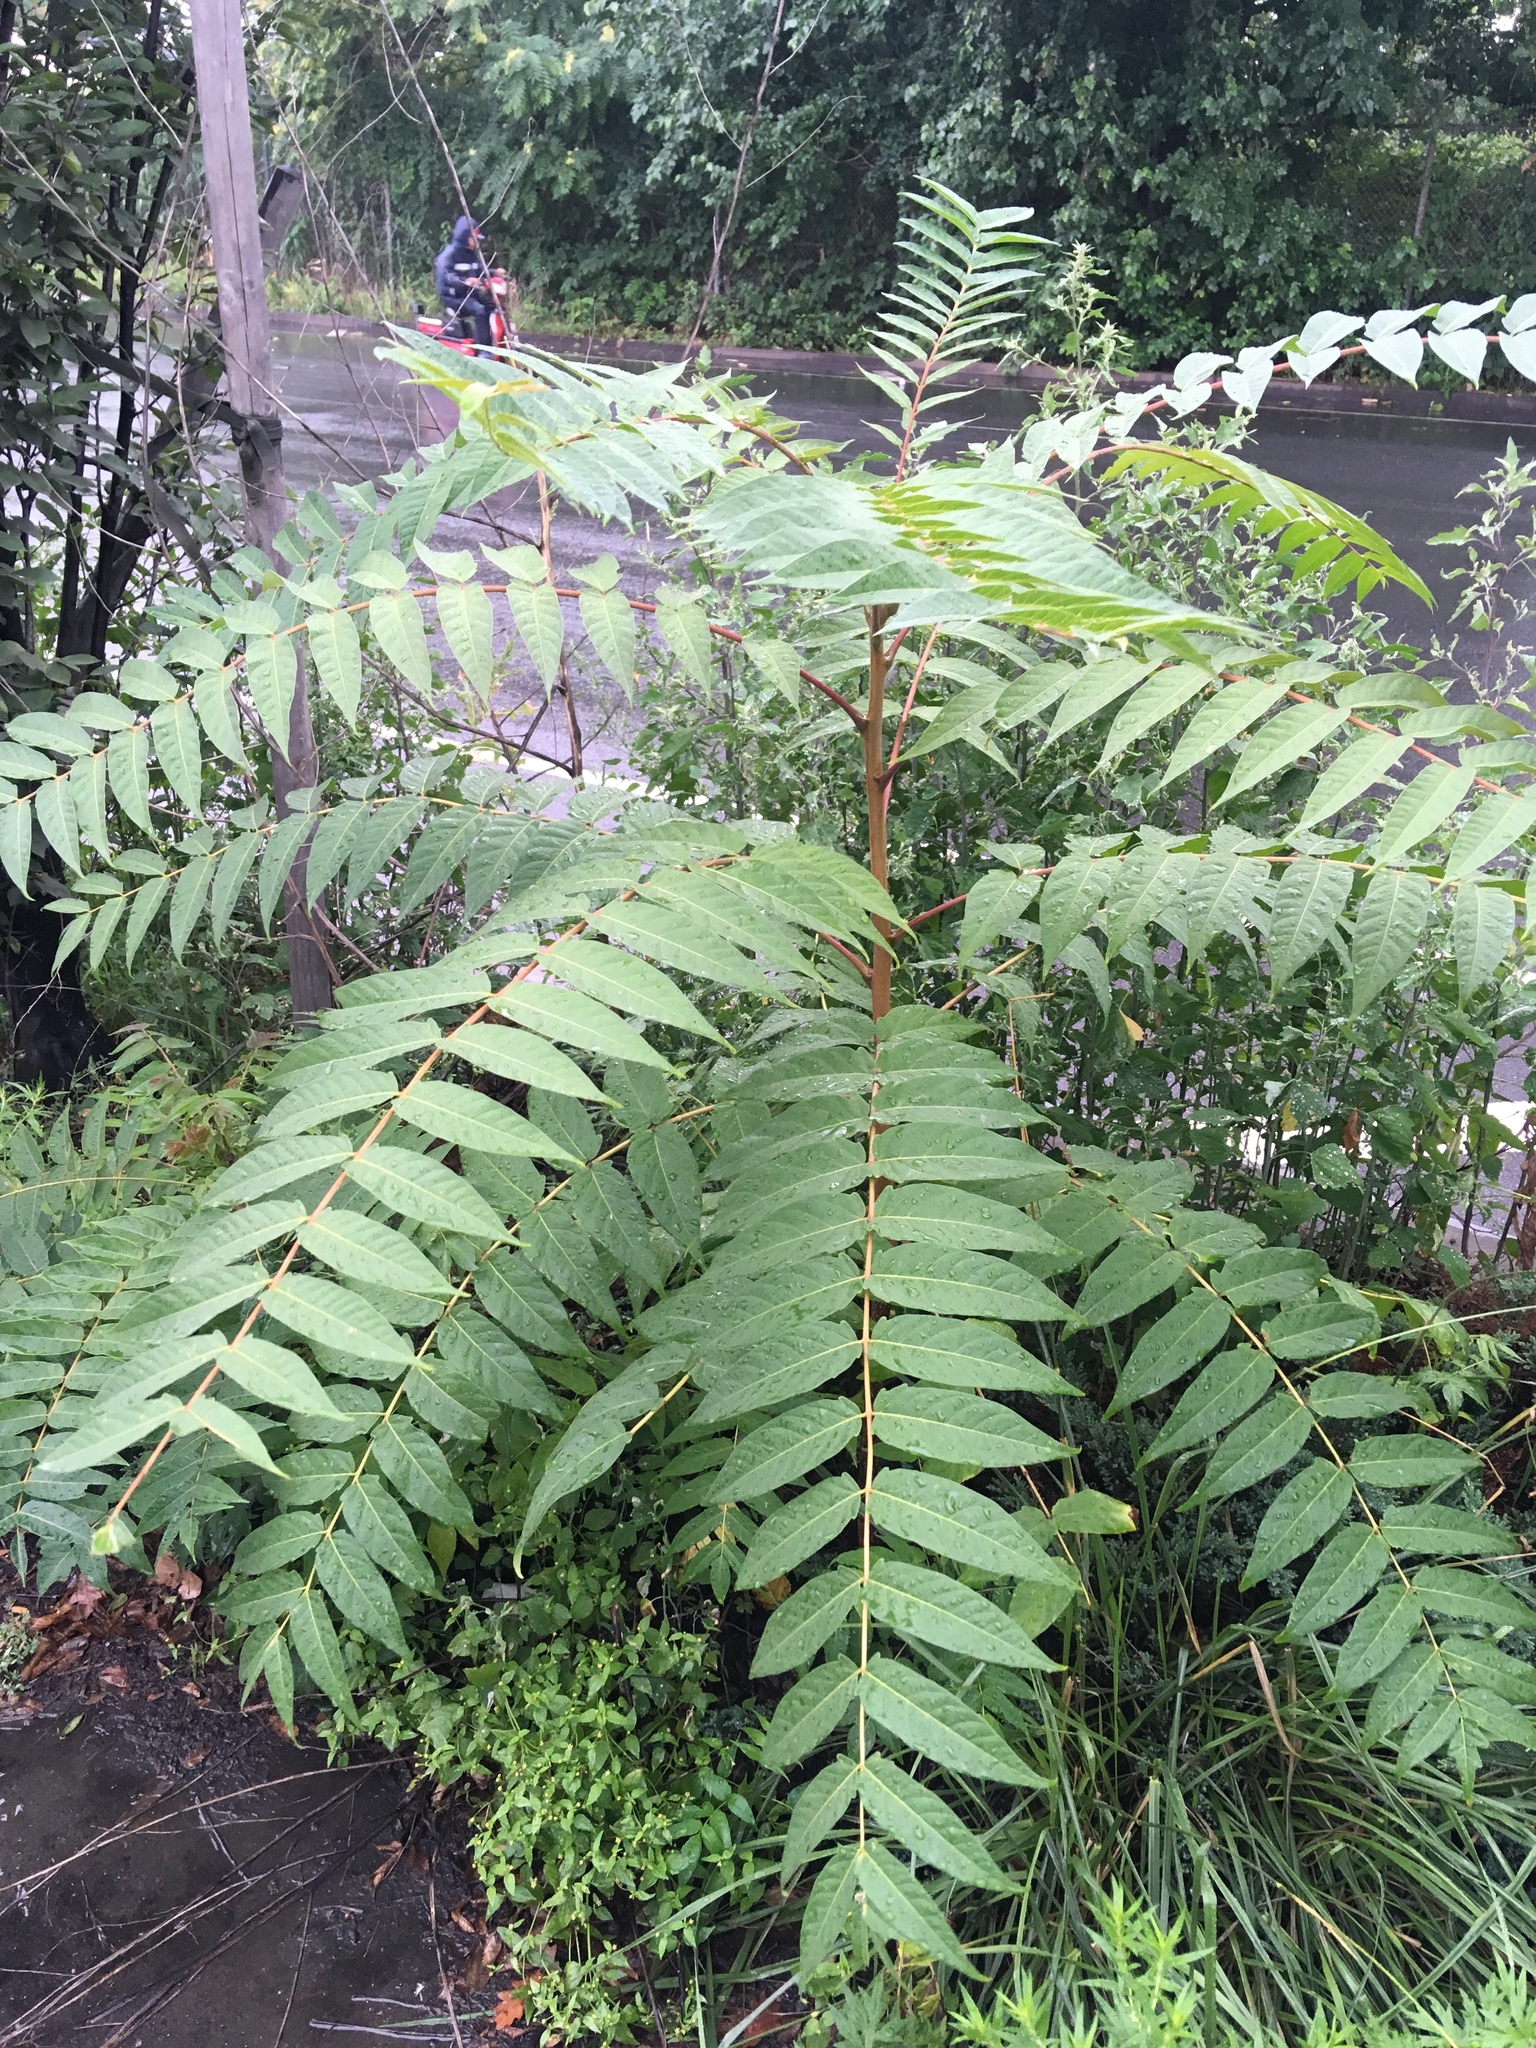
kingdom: Plantae
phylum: Tracheophyta
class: Magnoliopsida
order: Sapindales
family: Simaroubaceae
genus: Ailanthus
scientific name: Ailanthus altissima
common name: Tree-of-heaven
